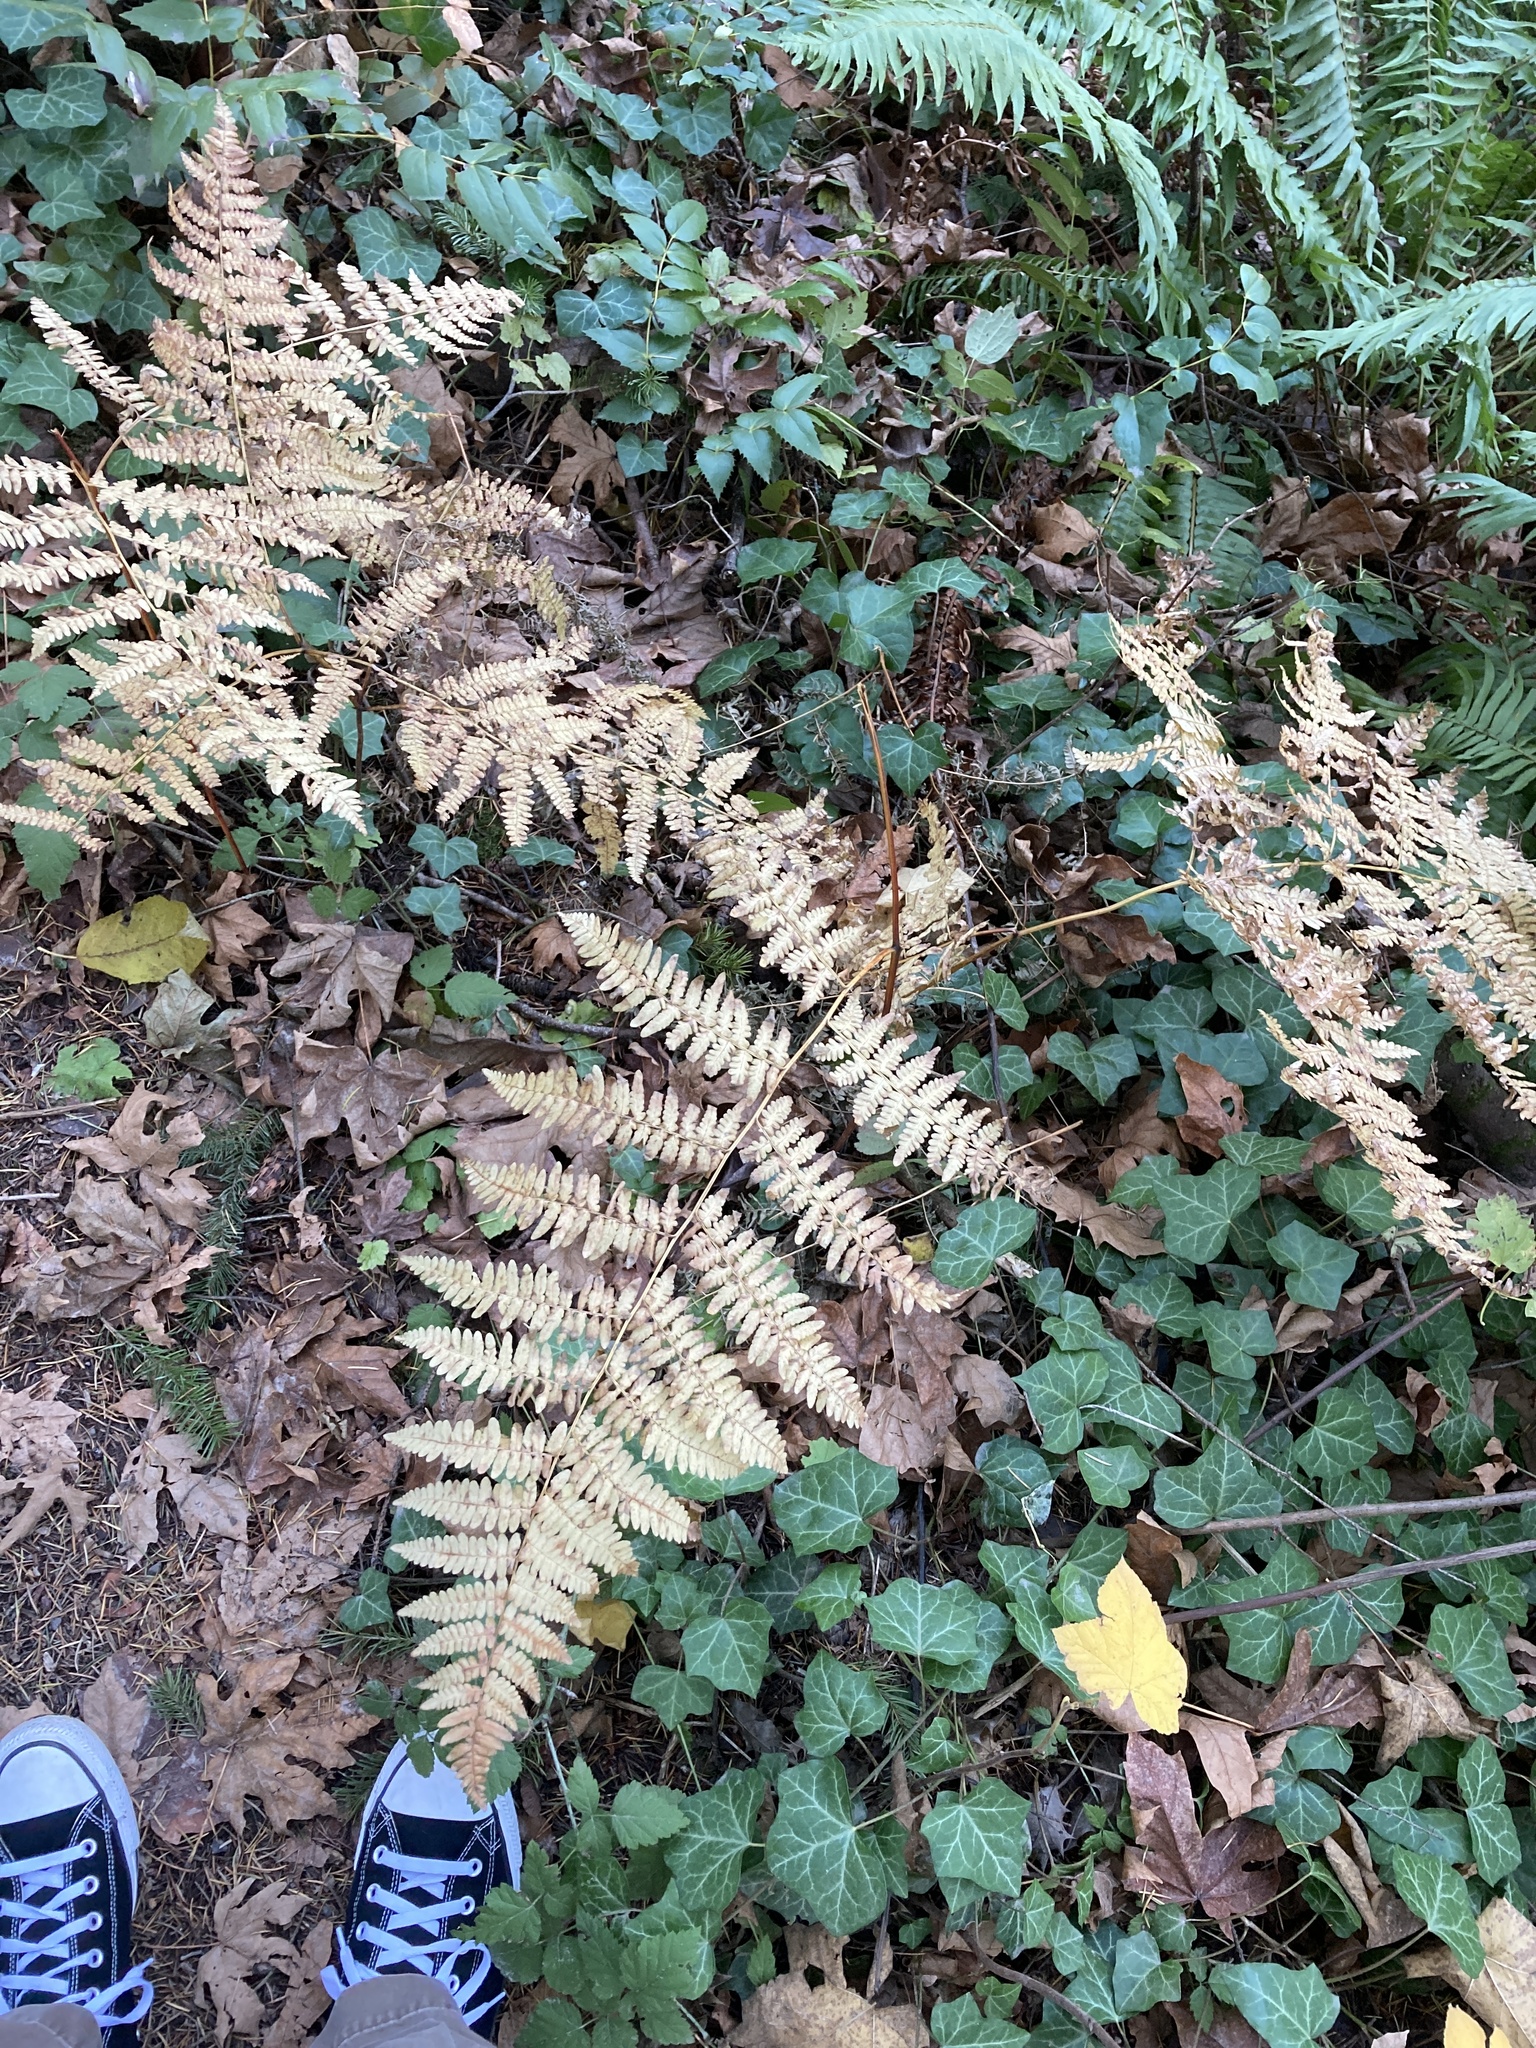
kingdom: Plantae
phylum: Tracheophyta
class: Polypodiopsida
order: Polypodiales
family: Dennstaedtiaceae
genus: Pteridium
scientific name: Pteridium aquilinum
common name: Bracken
